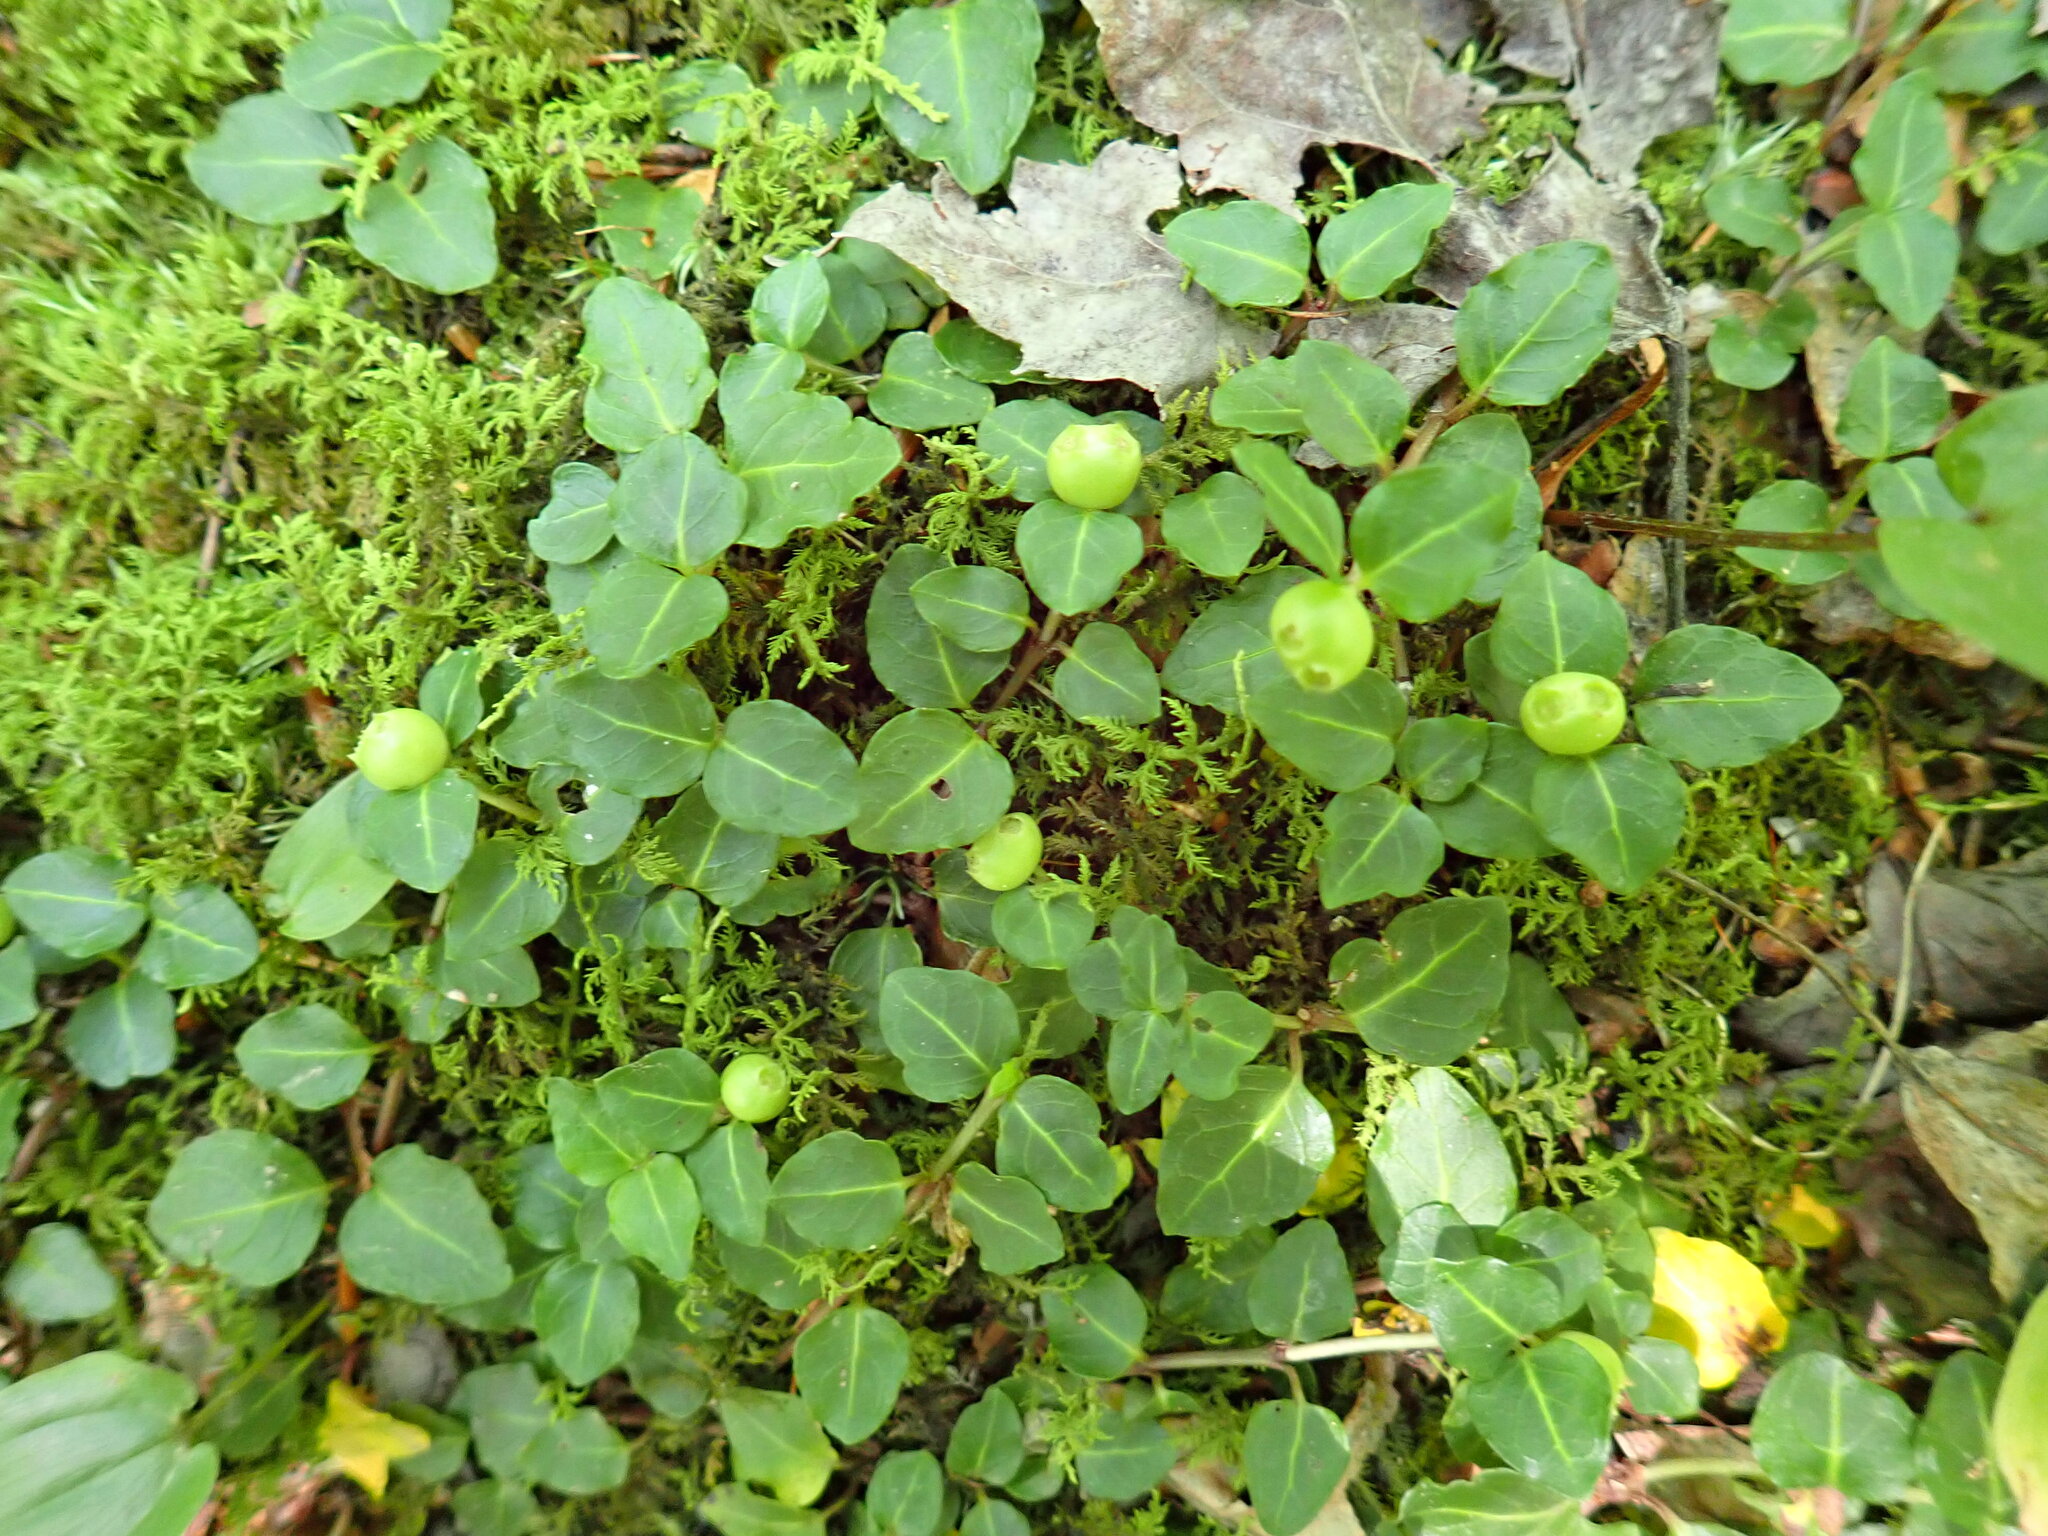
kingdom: Plantae
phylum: Tracheophyta
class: Magnoliopsida
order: Gentianales
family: Rubiaceae
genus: Mitchella
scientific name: Mitchella repens
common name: Partridge-berry
